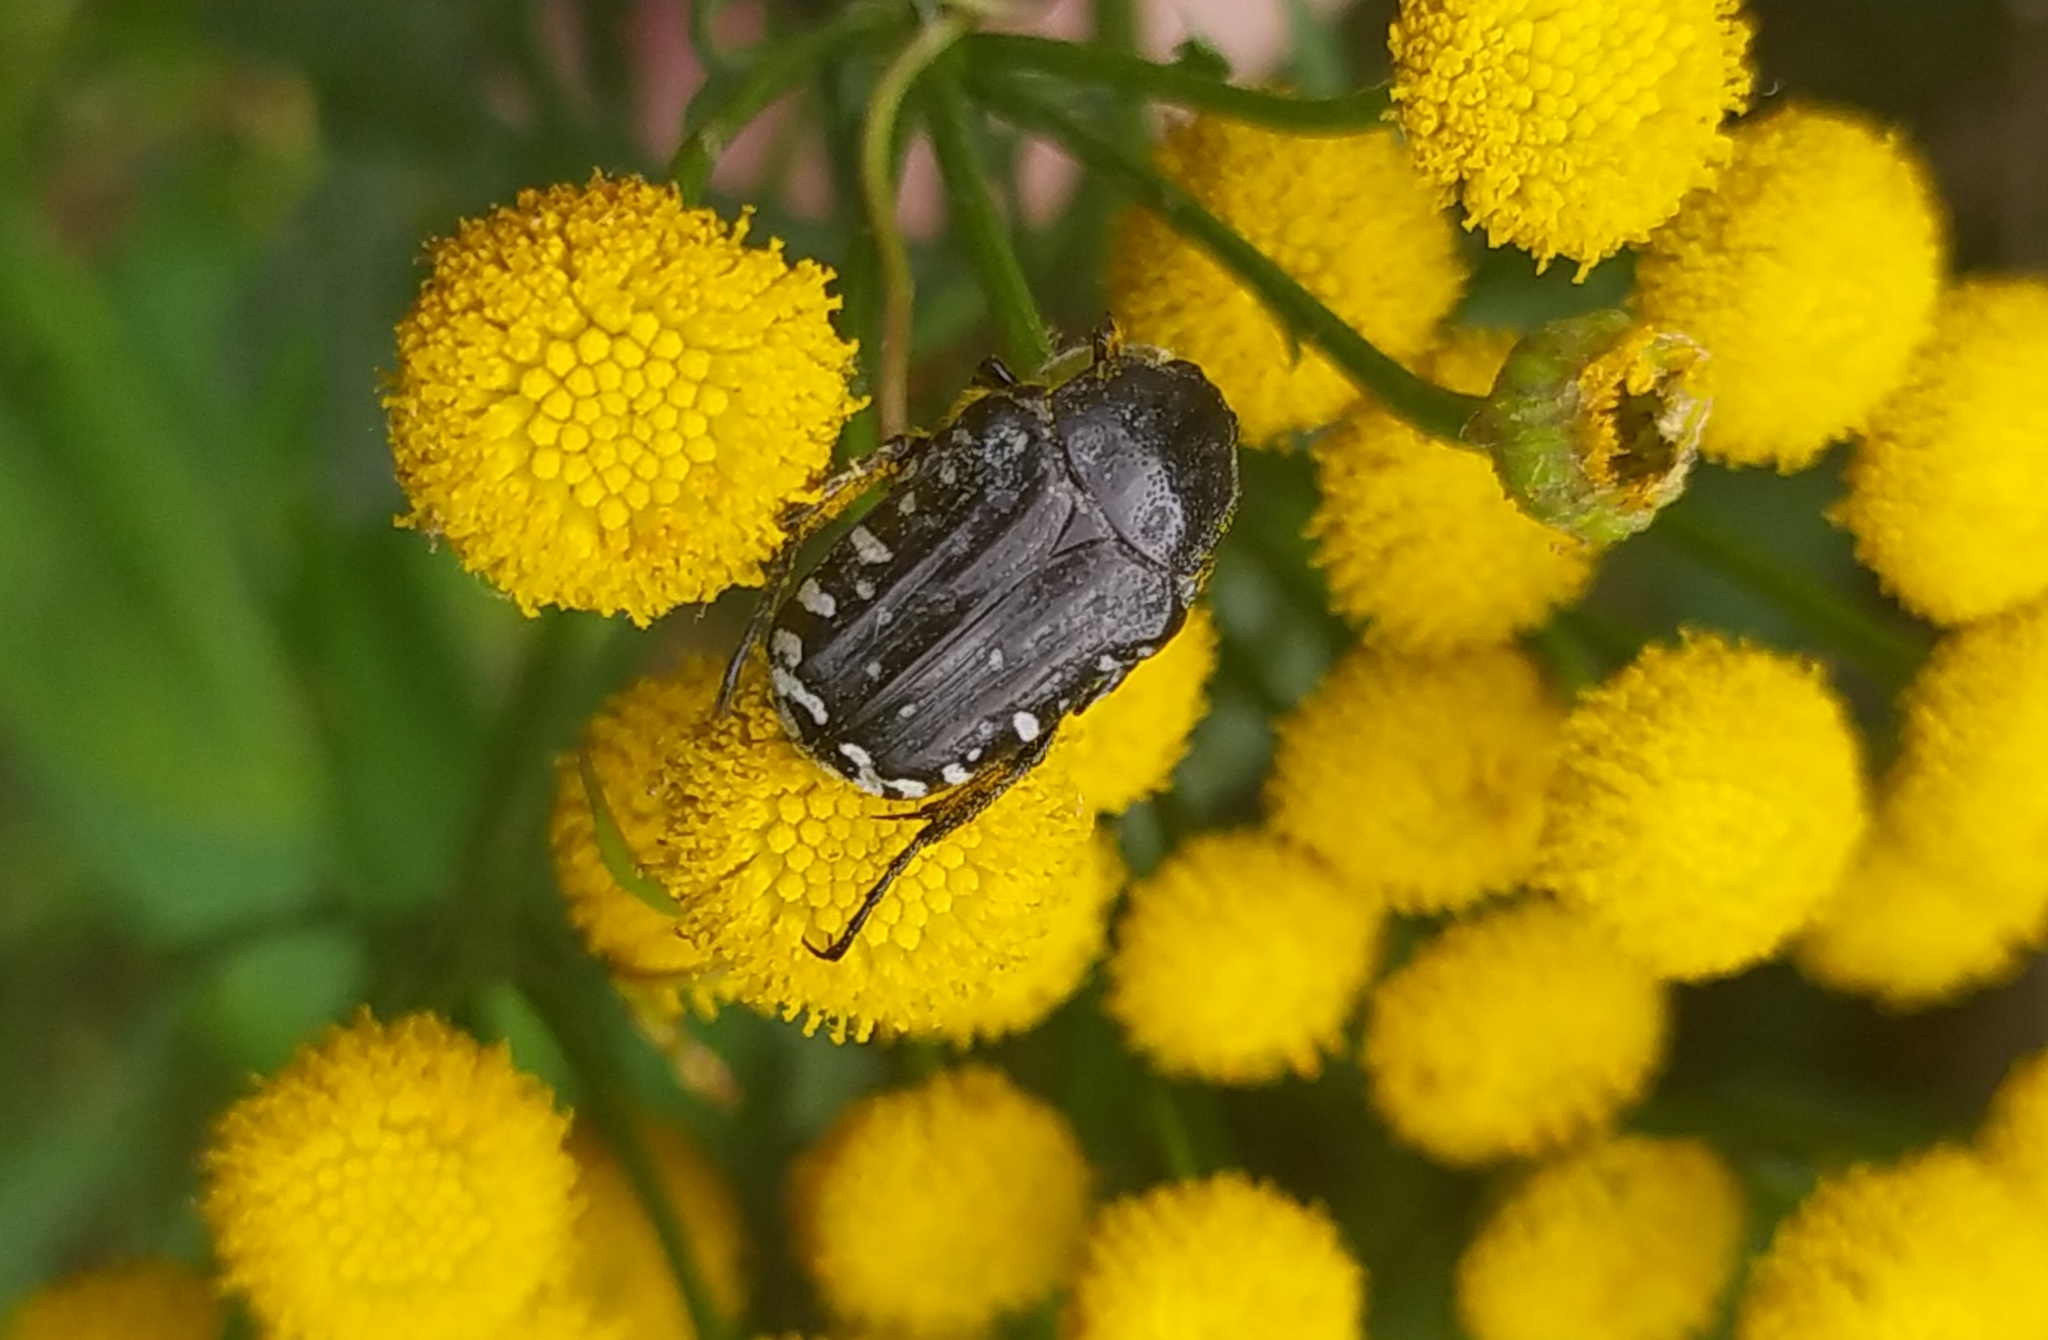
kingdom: Animalia
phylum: Arthropoda
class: Insecta
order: Coleoptera
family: Scarabaeidae
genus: Oxythyrea
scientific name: Oxythyrea funesta
